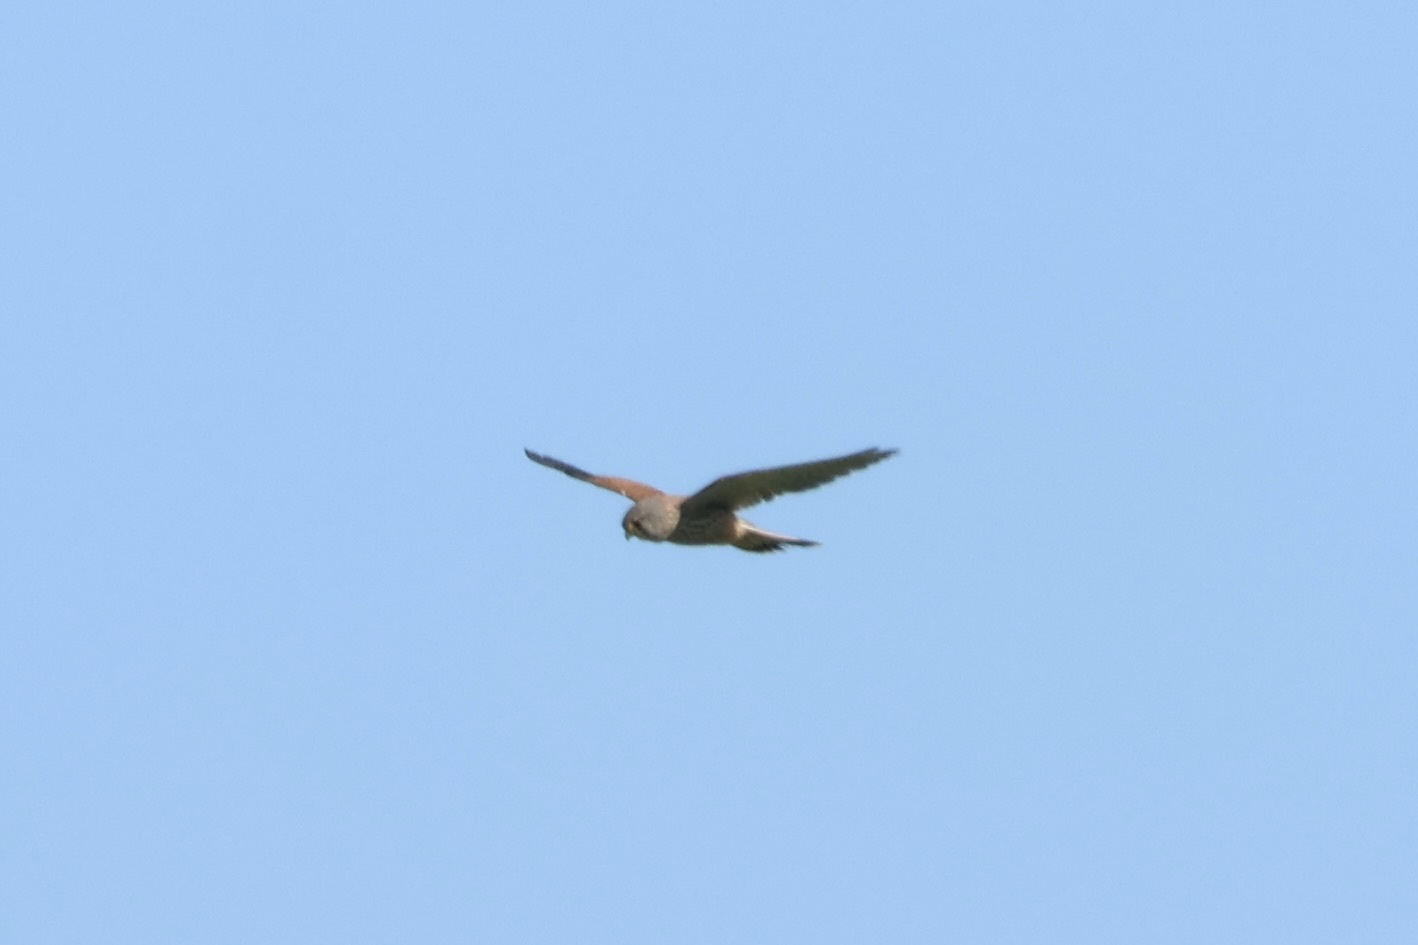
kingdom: Animalia
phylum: Chordata
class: Aves
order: Falconiformes
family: Falconidae
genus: Falco
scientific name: Falco tinnunculus
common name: Common kestrel
